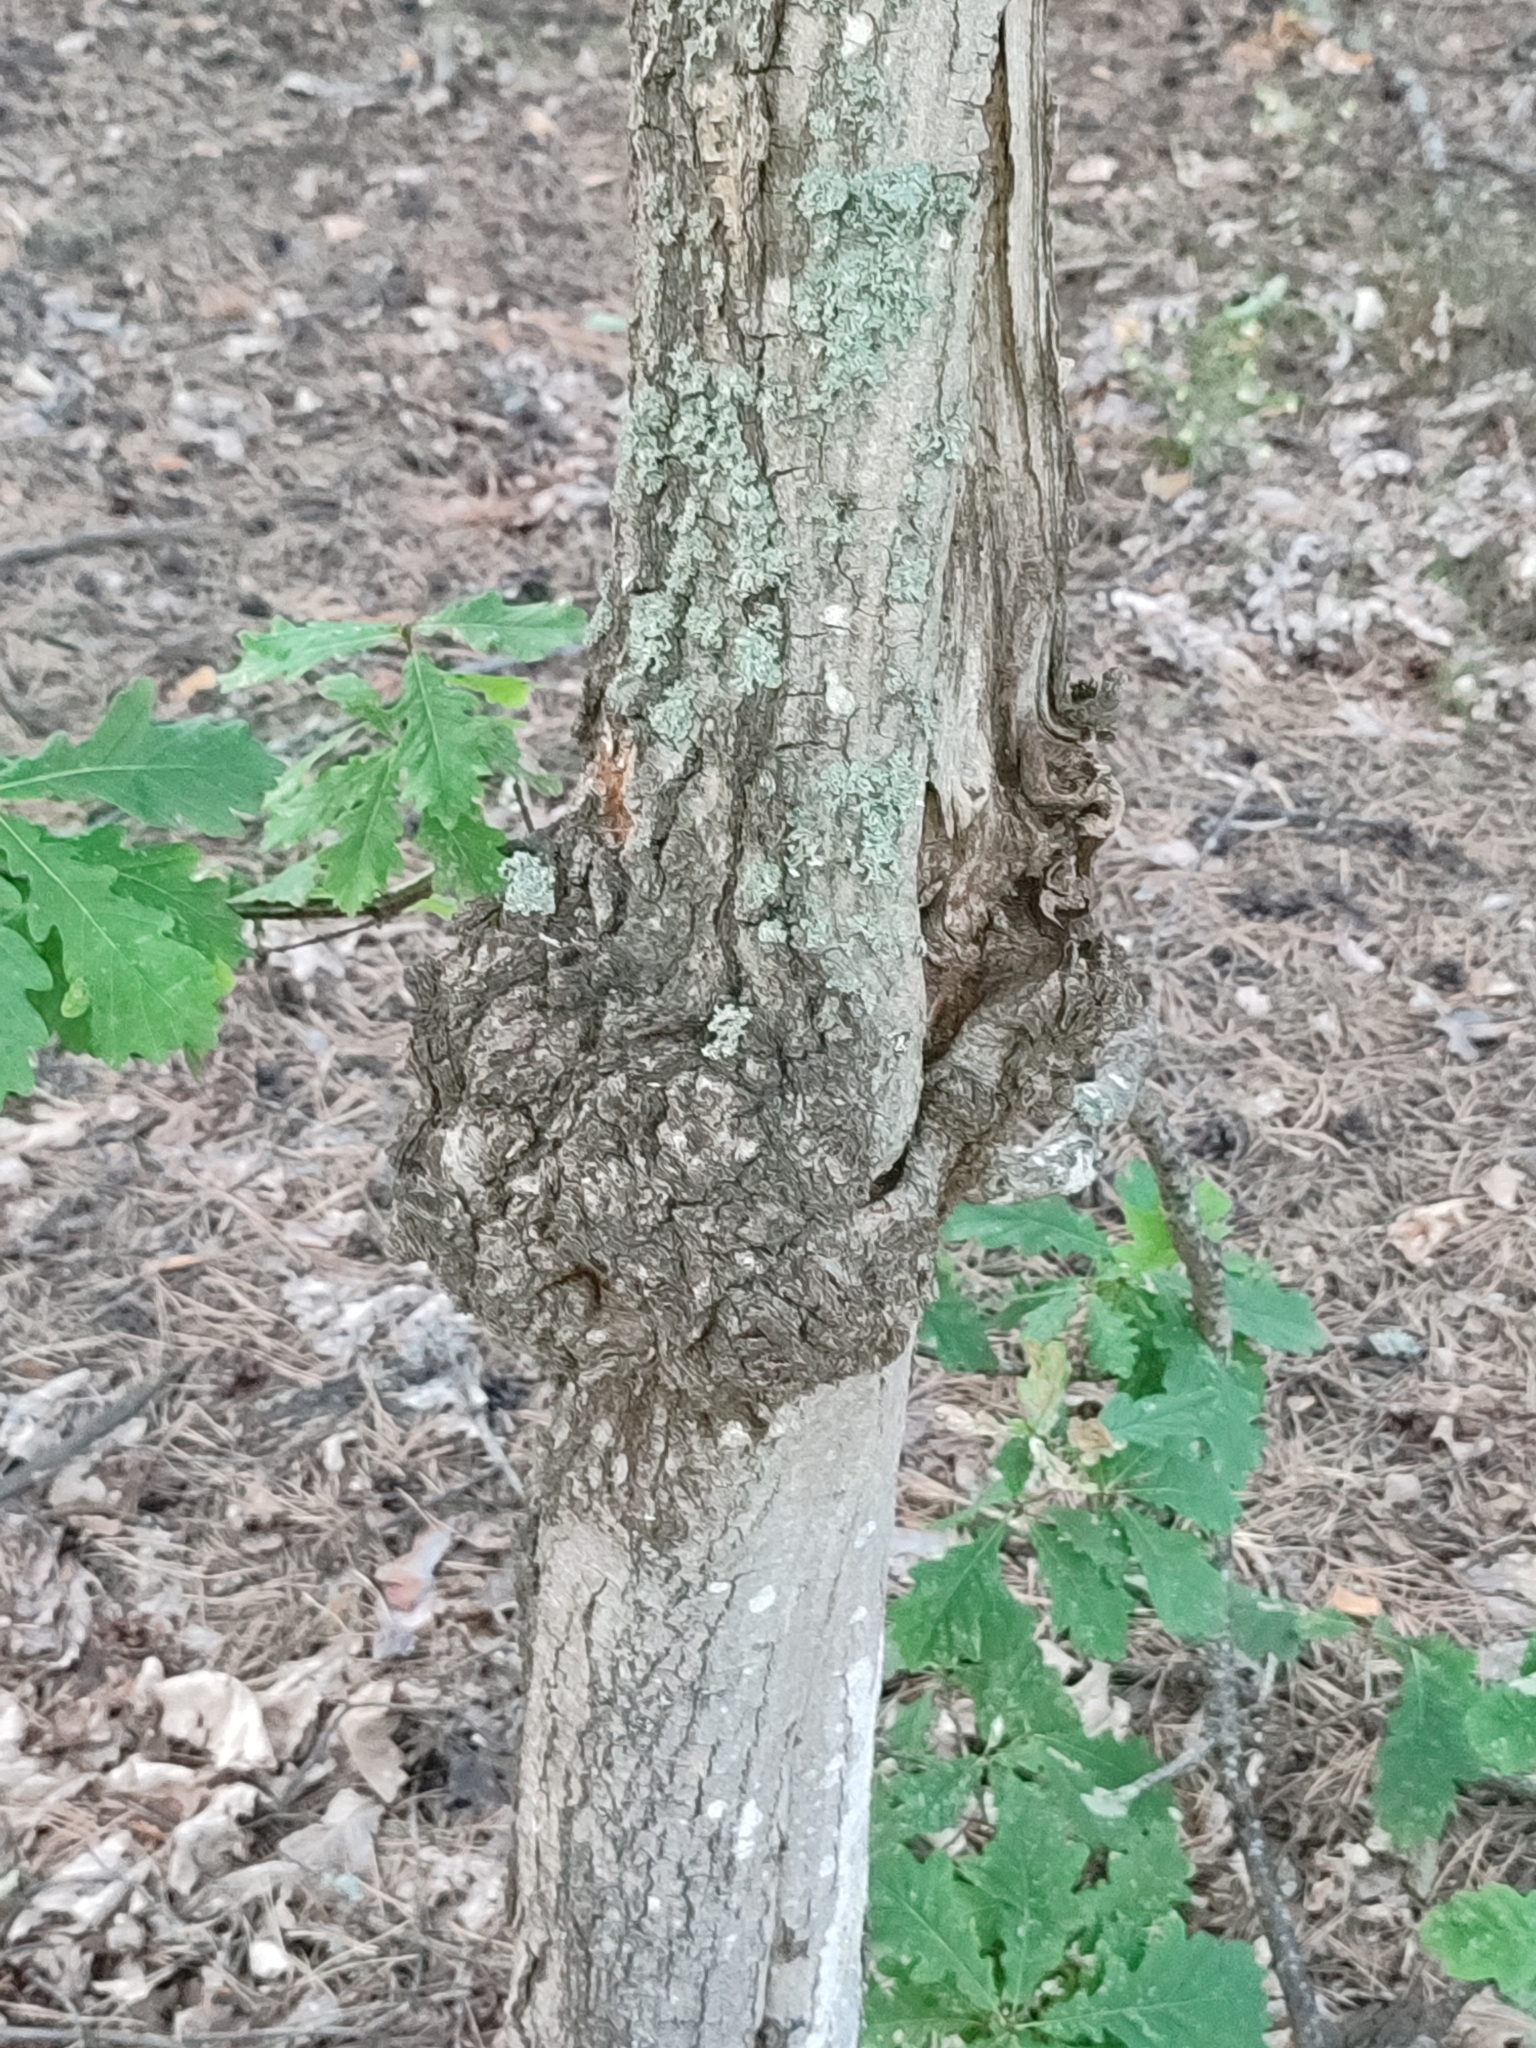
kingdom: Plantae
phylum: Tracheophyta
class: Magnoliopsida
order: Fagales
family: Fagaceae
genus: Quercus
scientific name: Quercus robur
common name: Pedunculate oak
